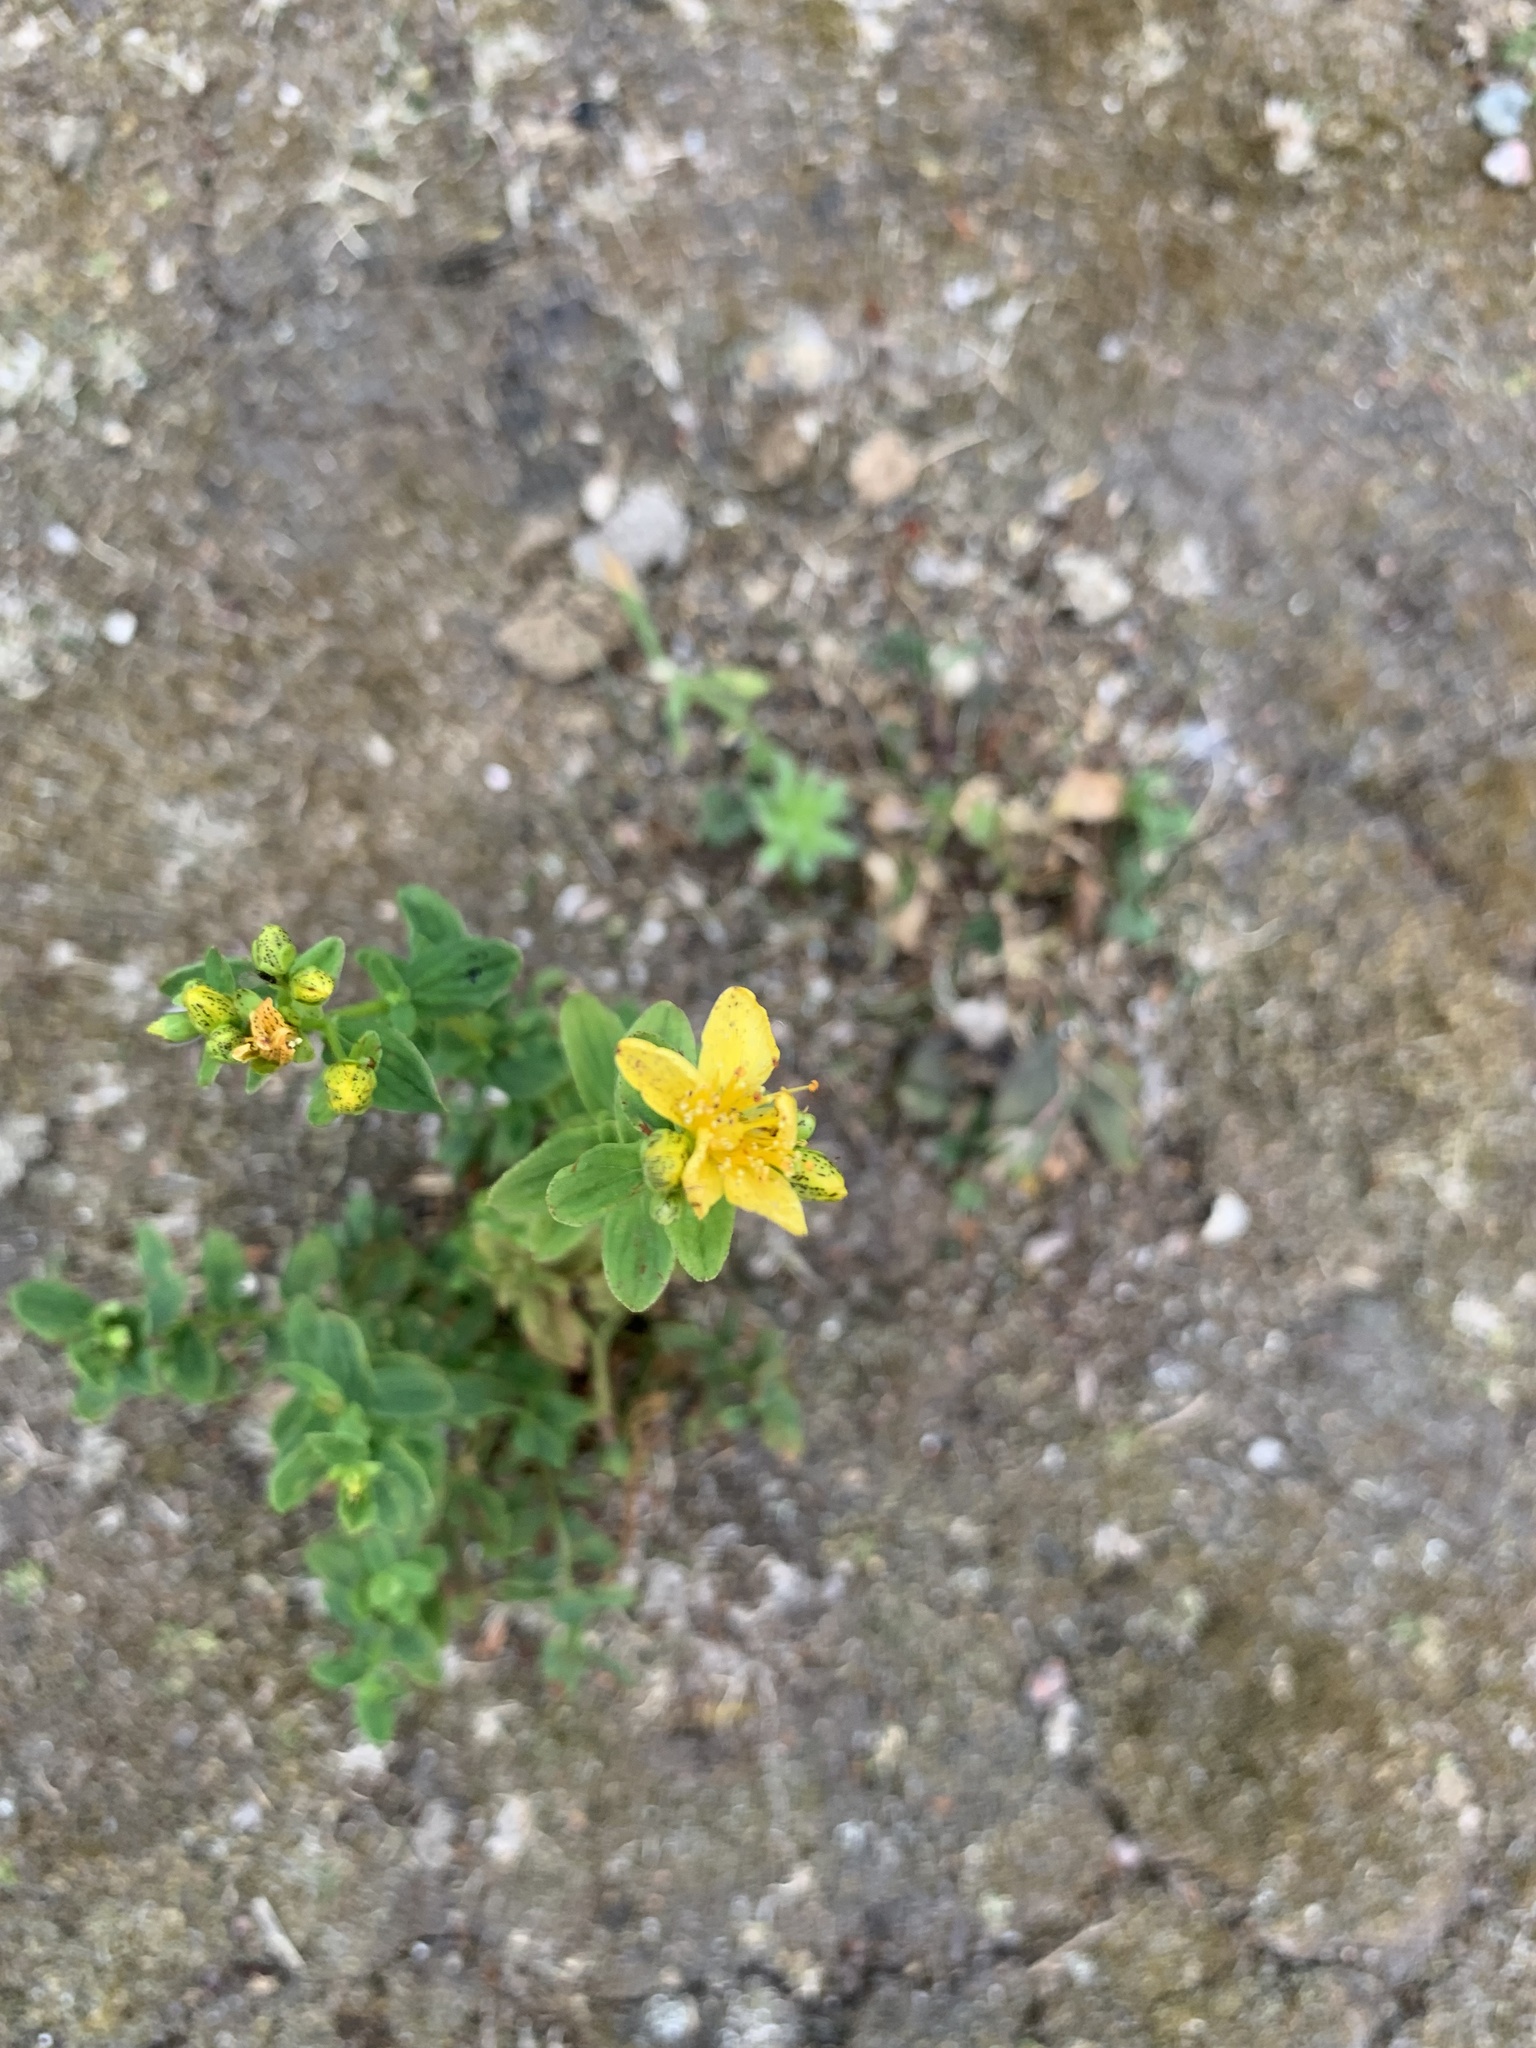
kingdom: Plantae
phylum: Tracheophyta
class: Magnoliopsida
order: Malpighiales
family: Hypericaceae
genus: Hypericum
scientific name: Hypericum maculatum
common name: Imperforate st. john's-wort
